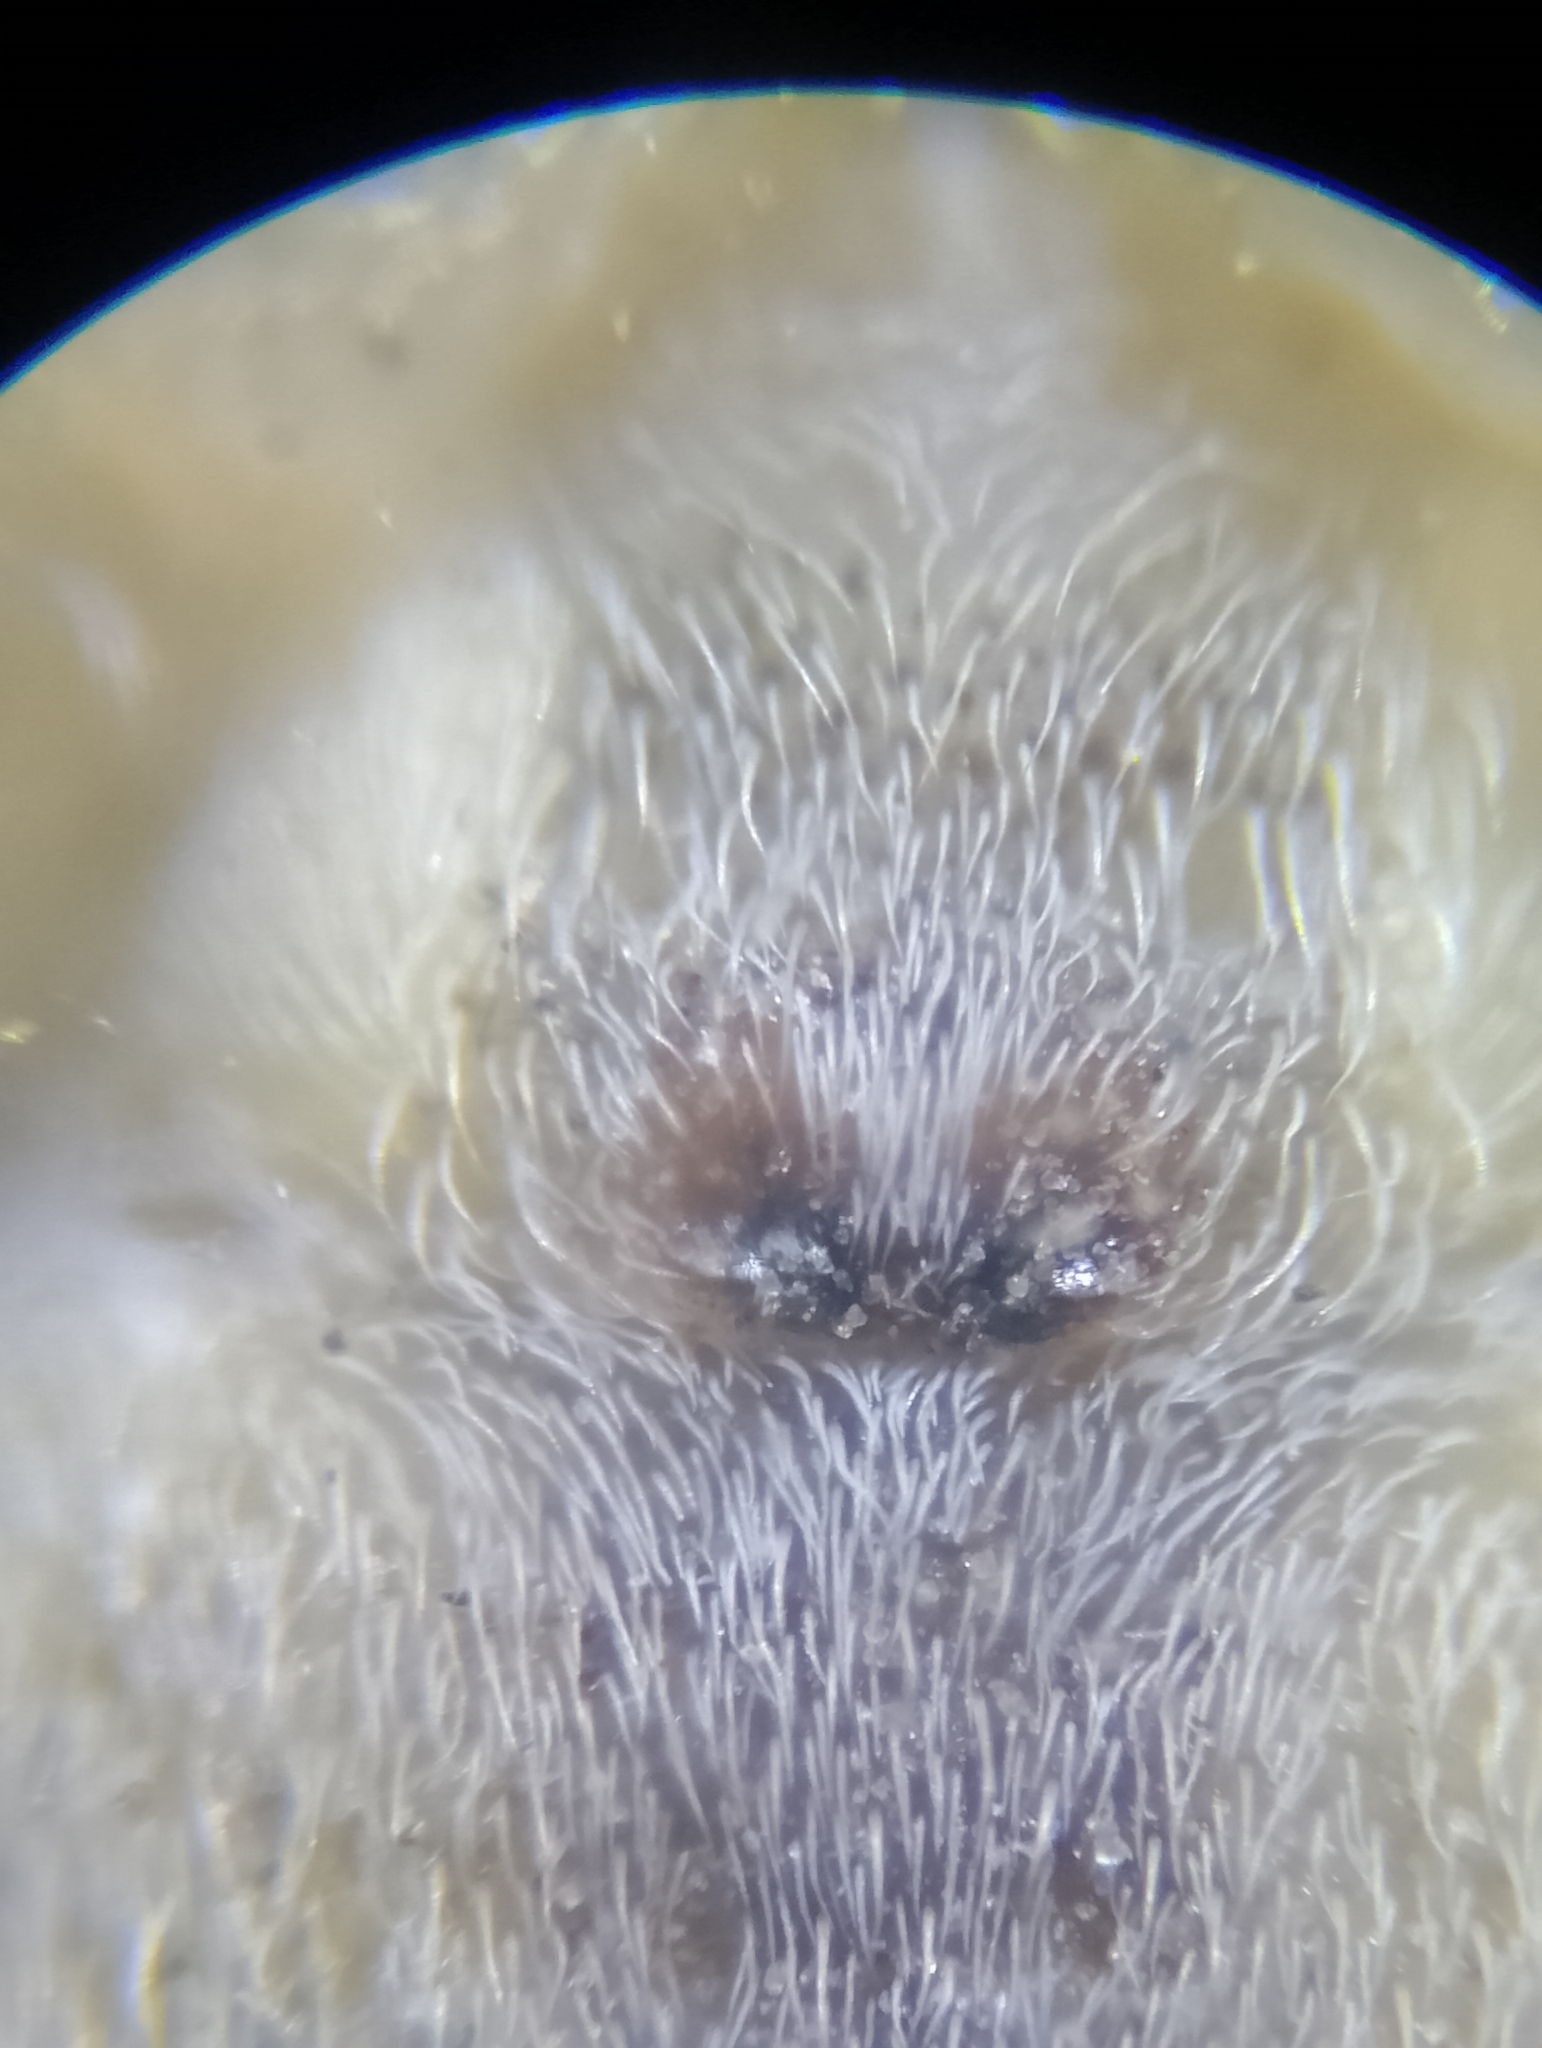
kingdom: Animalia
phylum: Arthropoda
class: Arachnida
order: Araneae
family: Philodromidae
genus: Tibellus
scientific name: Tibellus oblongus
